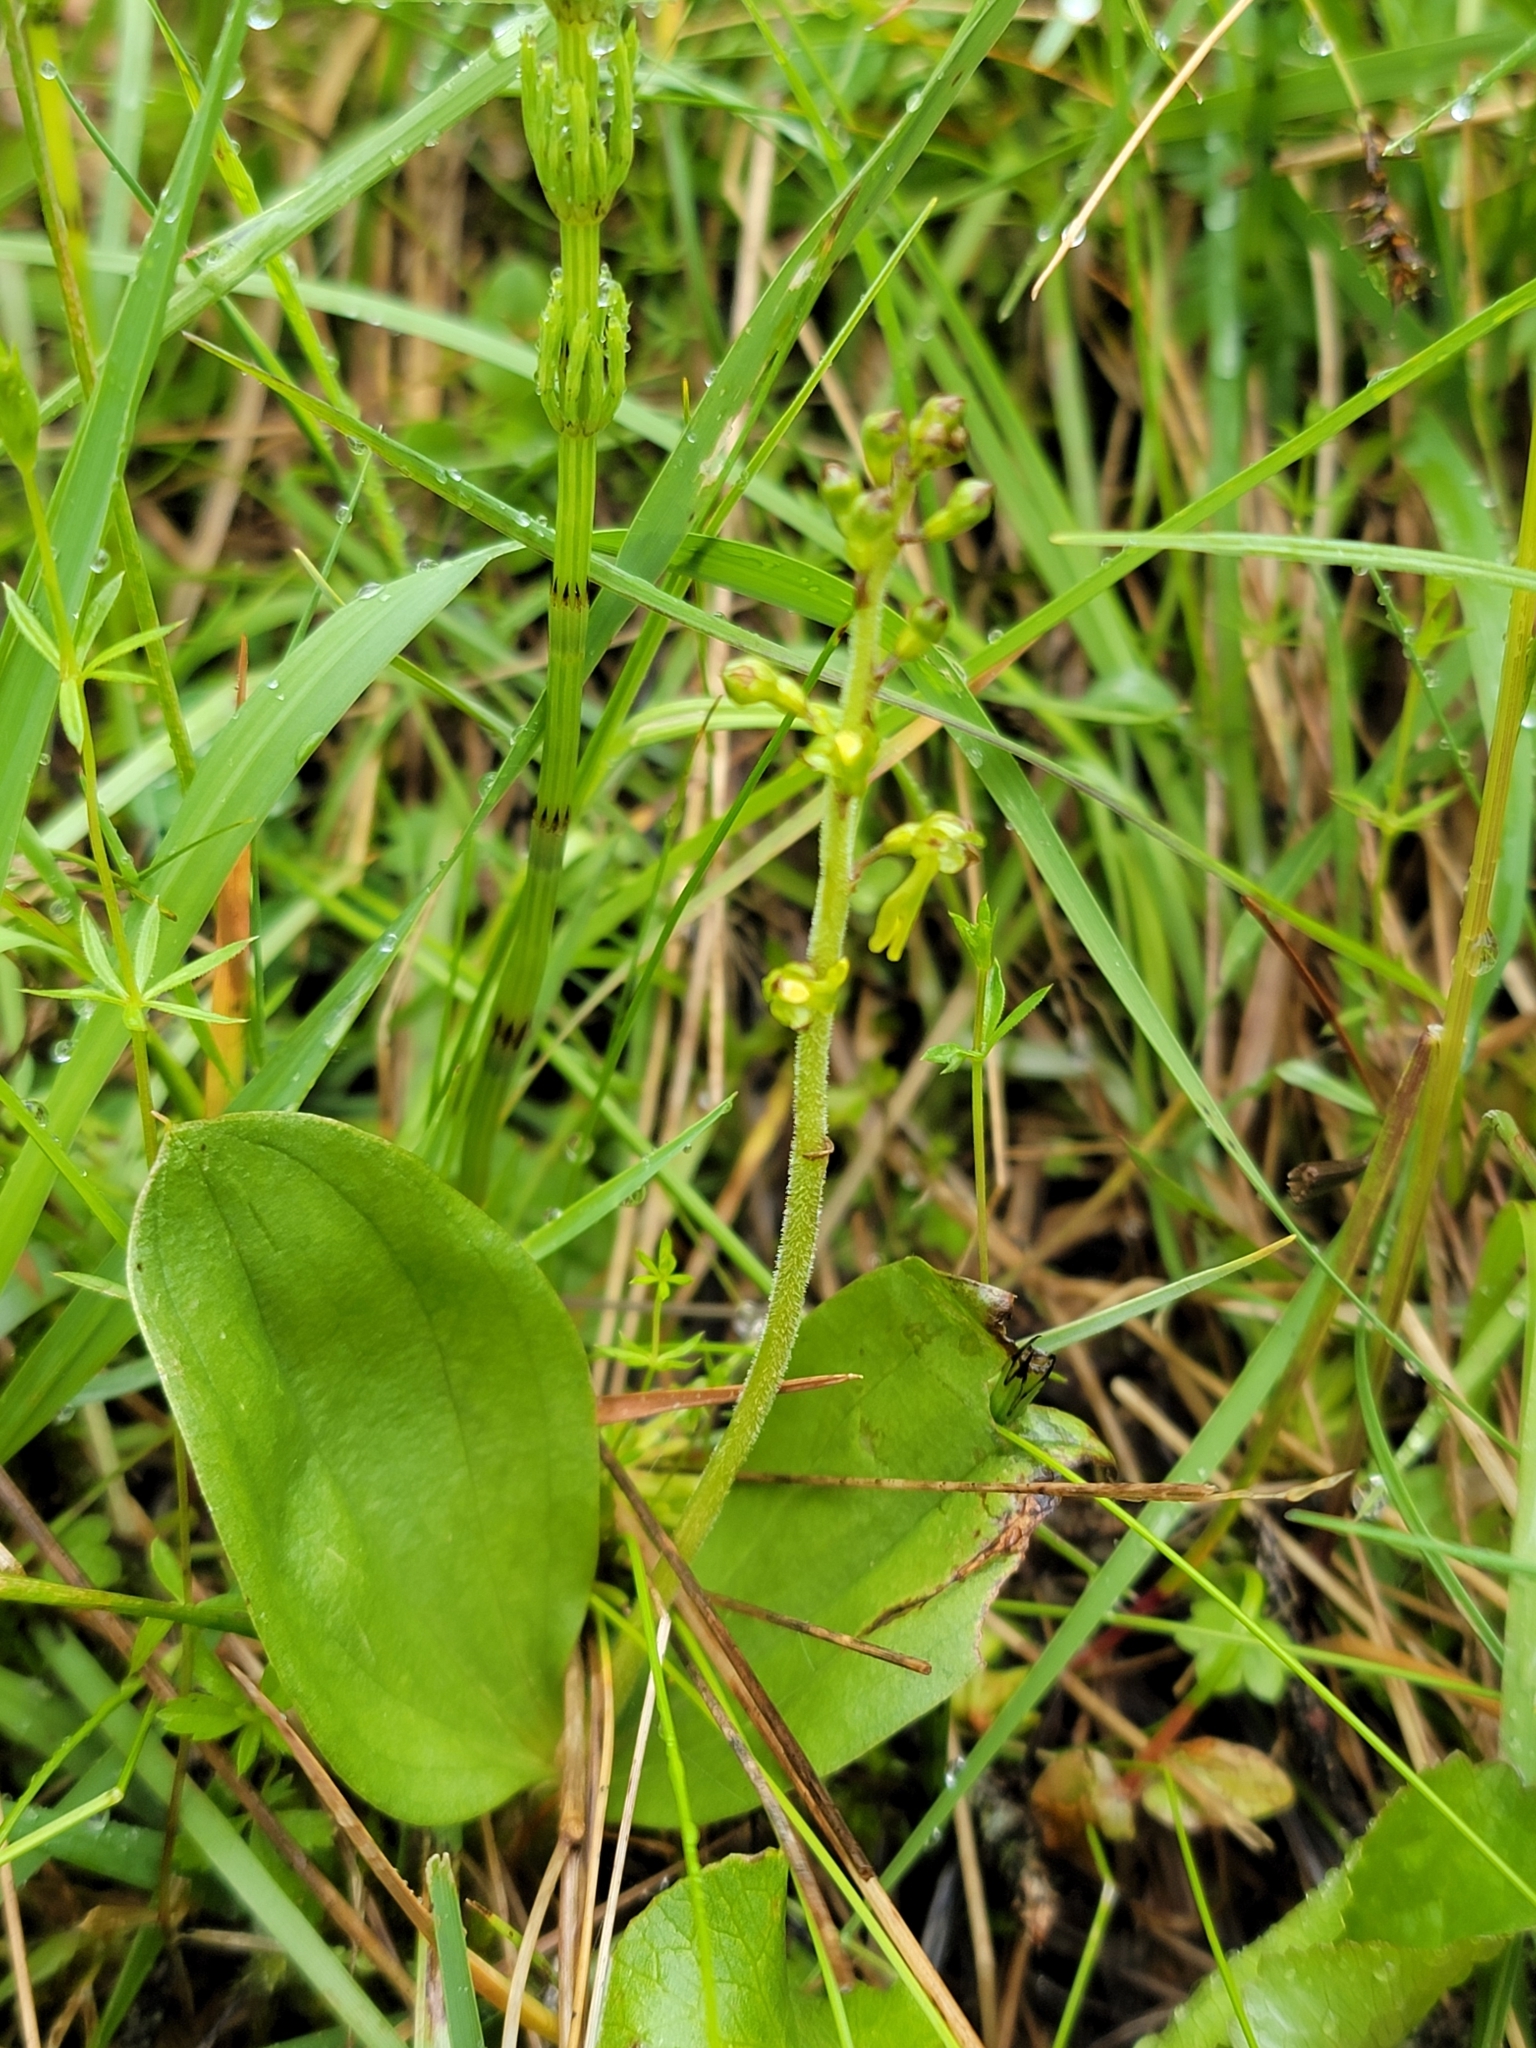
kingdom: Plantae
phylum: Tracheophyta
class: Liliopsida
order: Asparagales
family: Orchidaceae
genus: Neottia
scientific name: Neottia ovata
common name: Common twayblade
